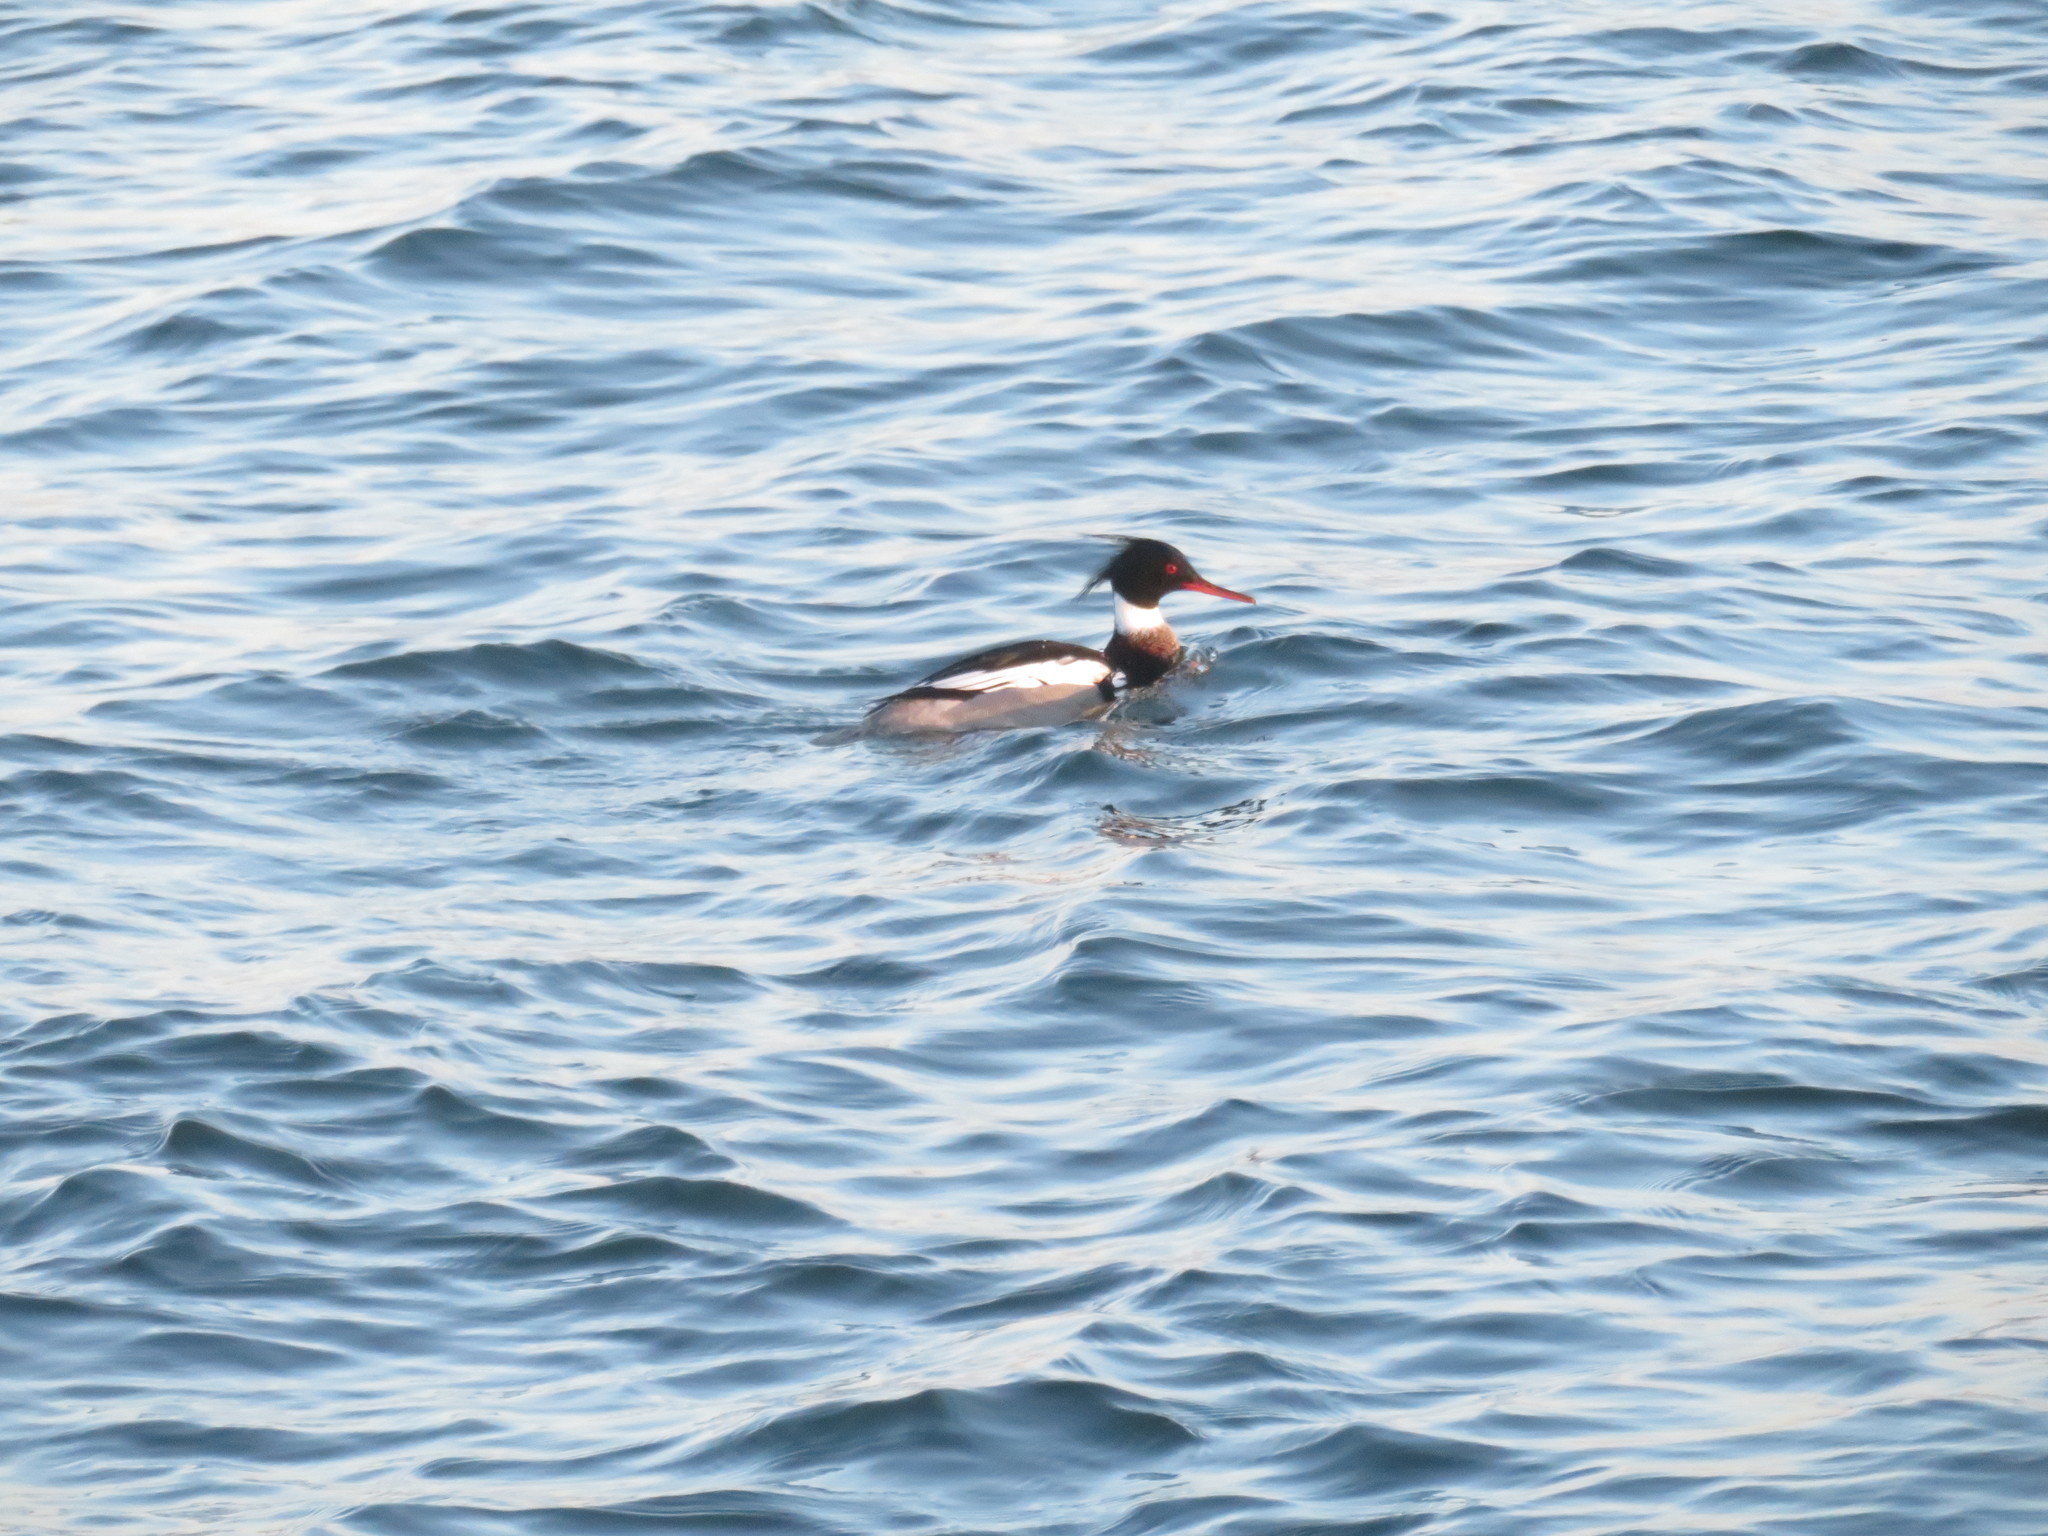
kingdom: Animalia
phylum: Chordata
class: Aves
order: Anseriformes
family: Anatidae
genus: Mergus
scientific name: Mergus serrator
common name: Red-breasted merganser
